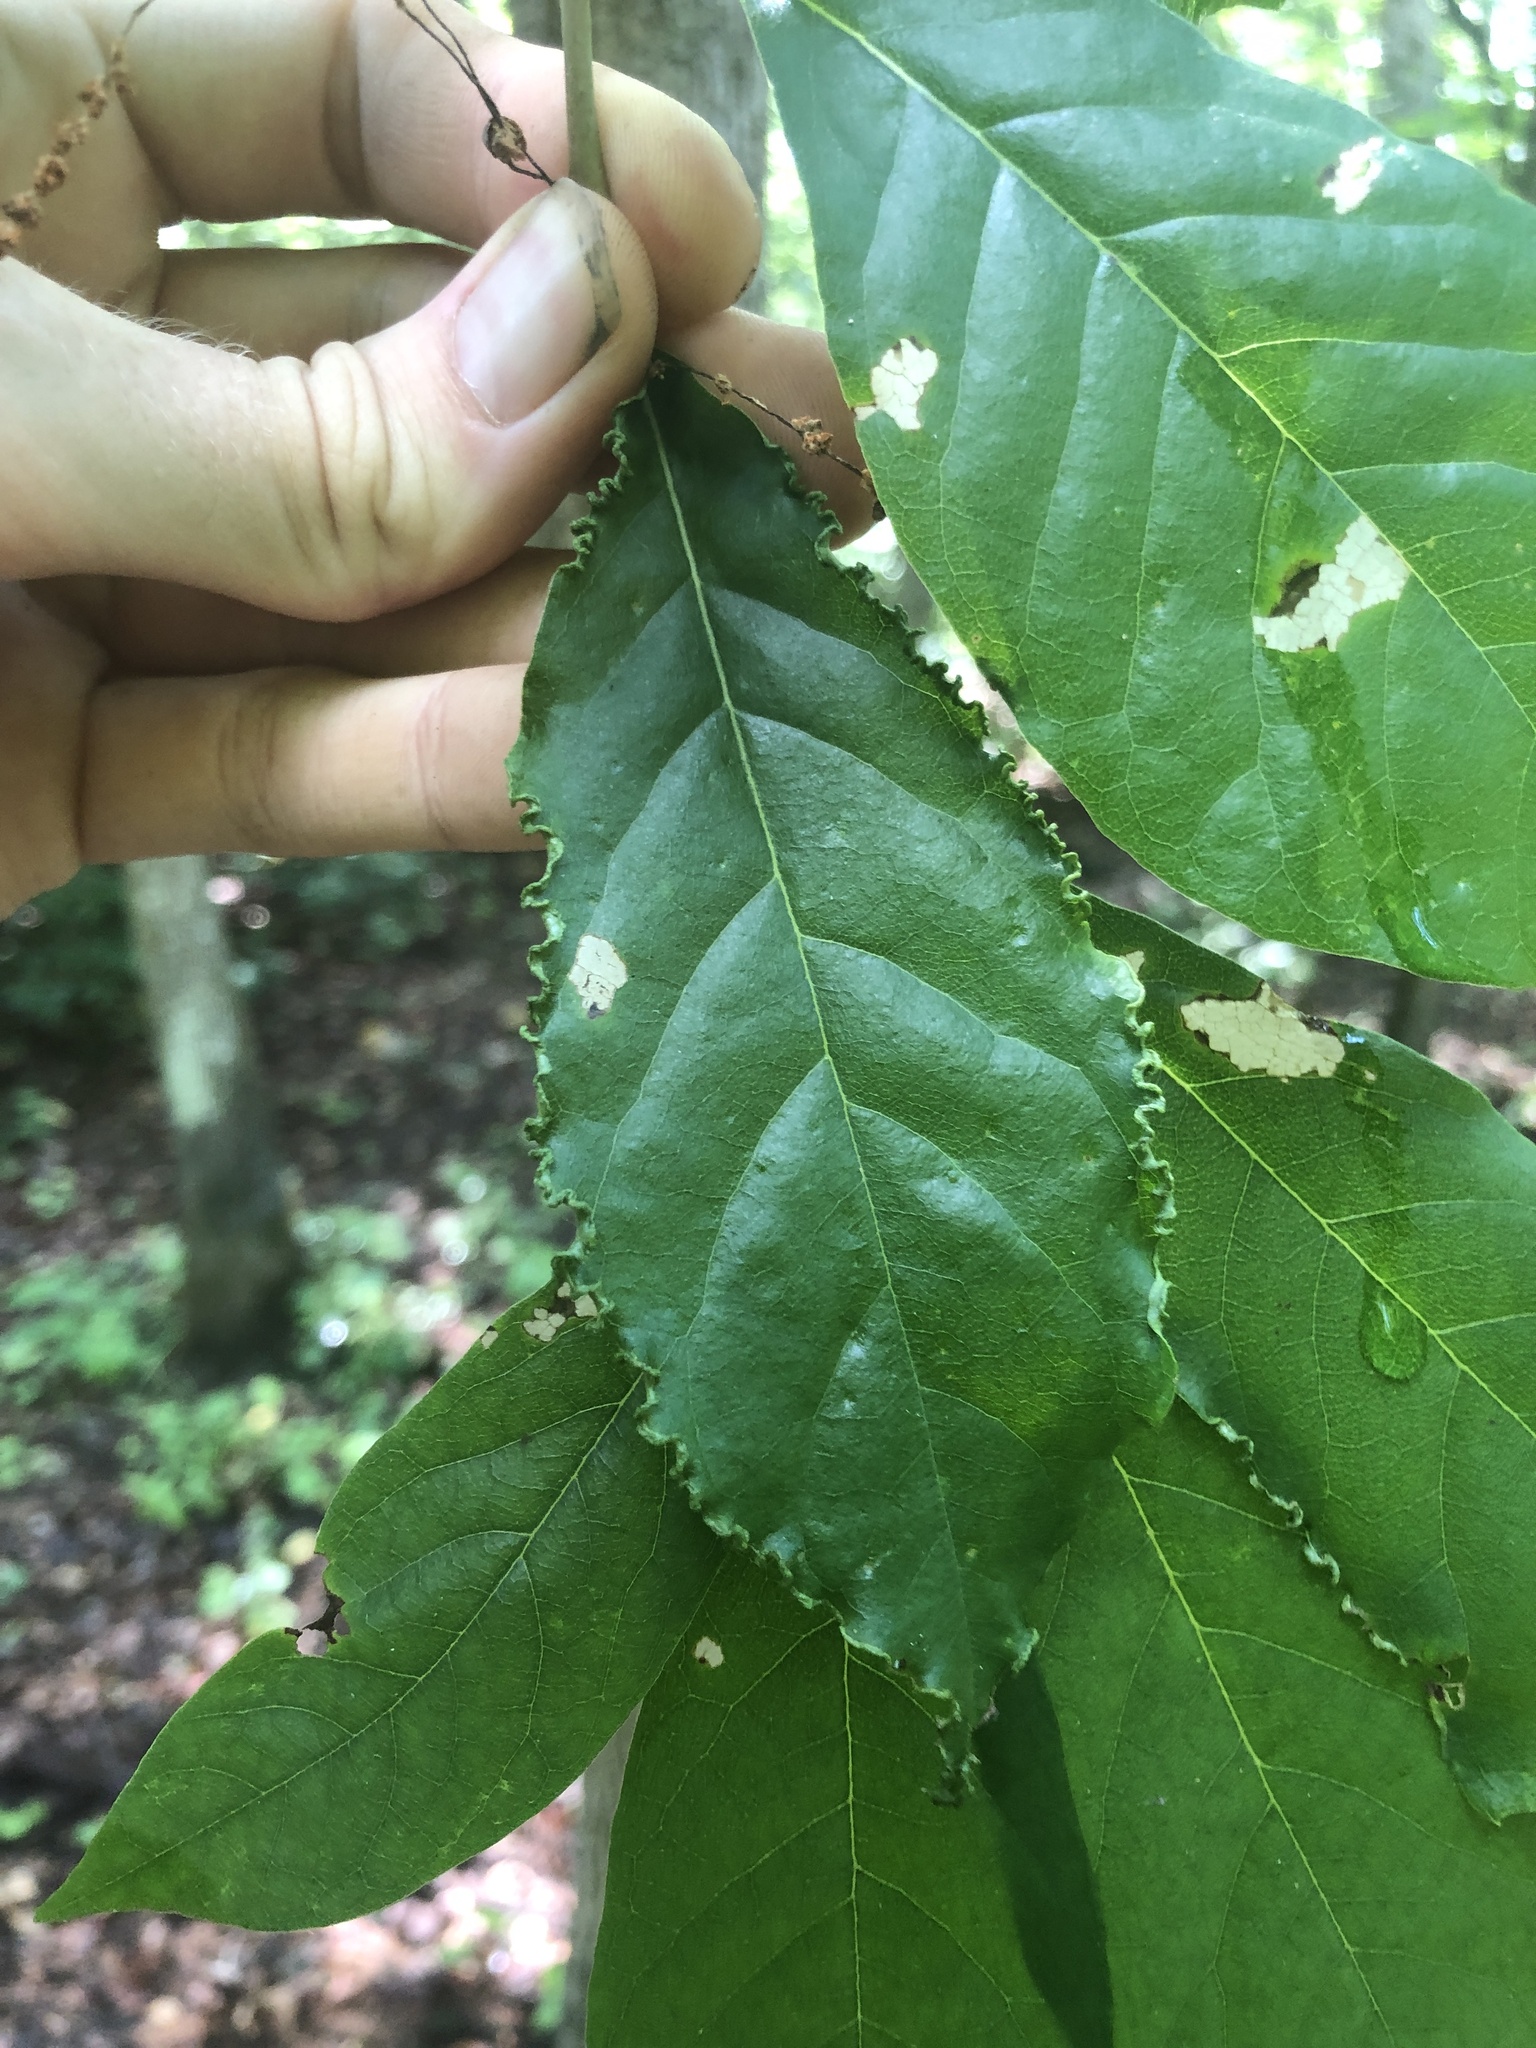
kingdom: Animalia
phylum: Arthropoda
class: Arachnida
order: Trombidiformes
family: Eriophyidae
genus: Aceria
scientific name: Aceria
